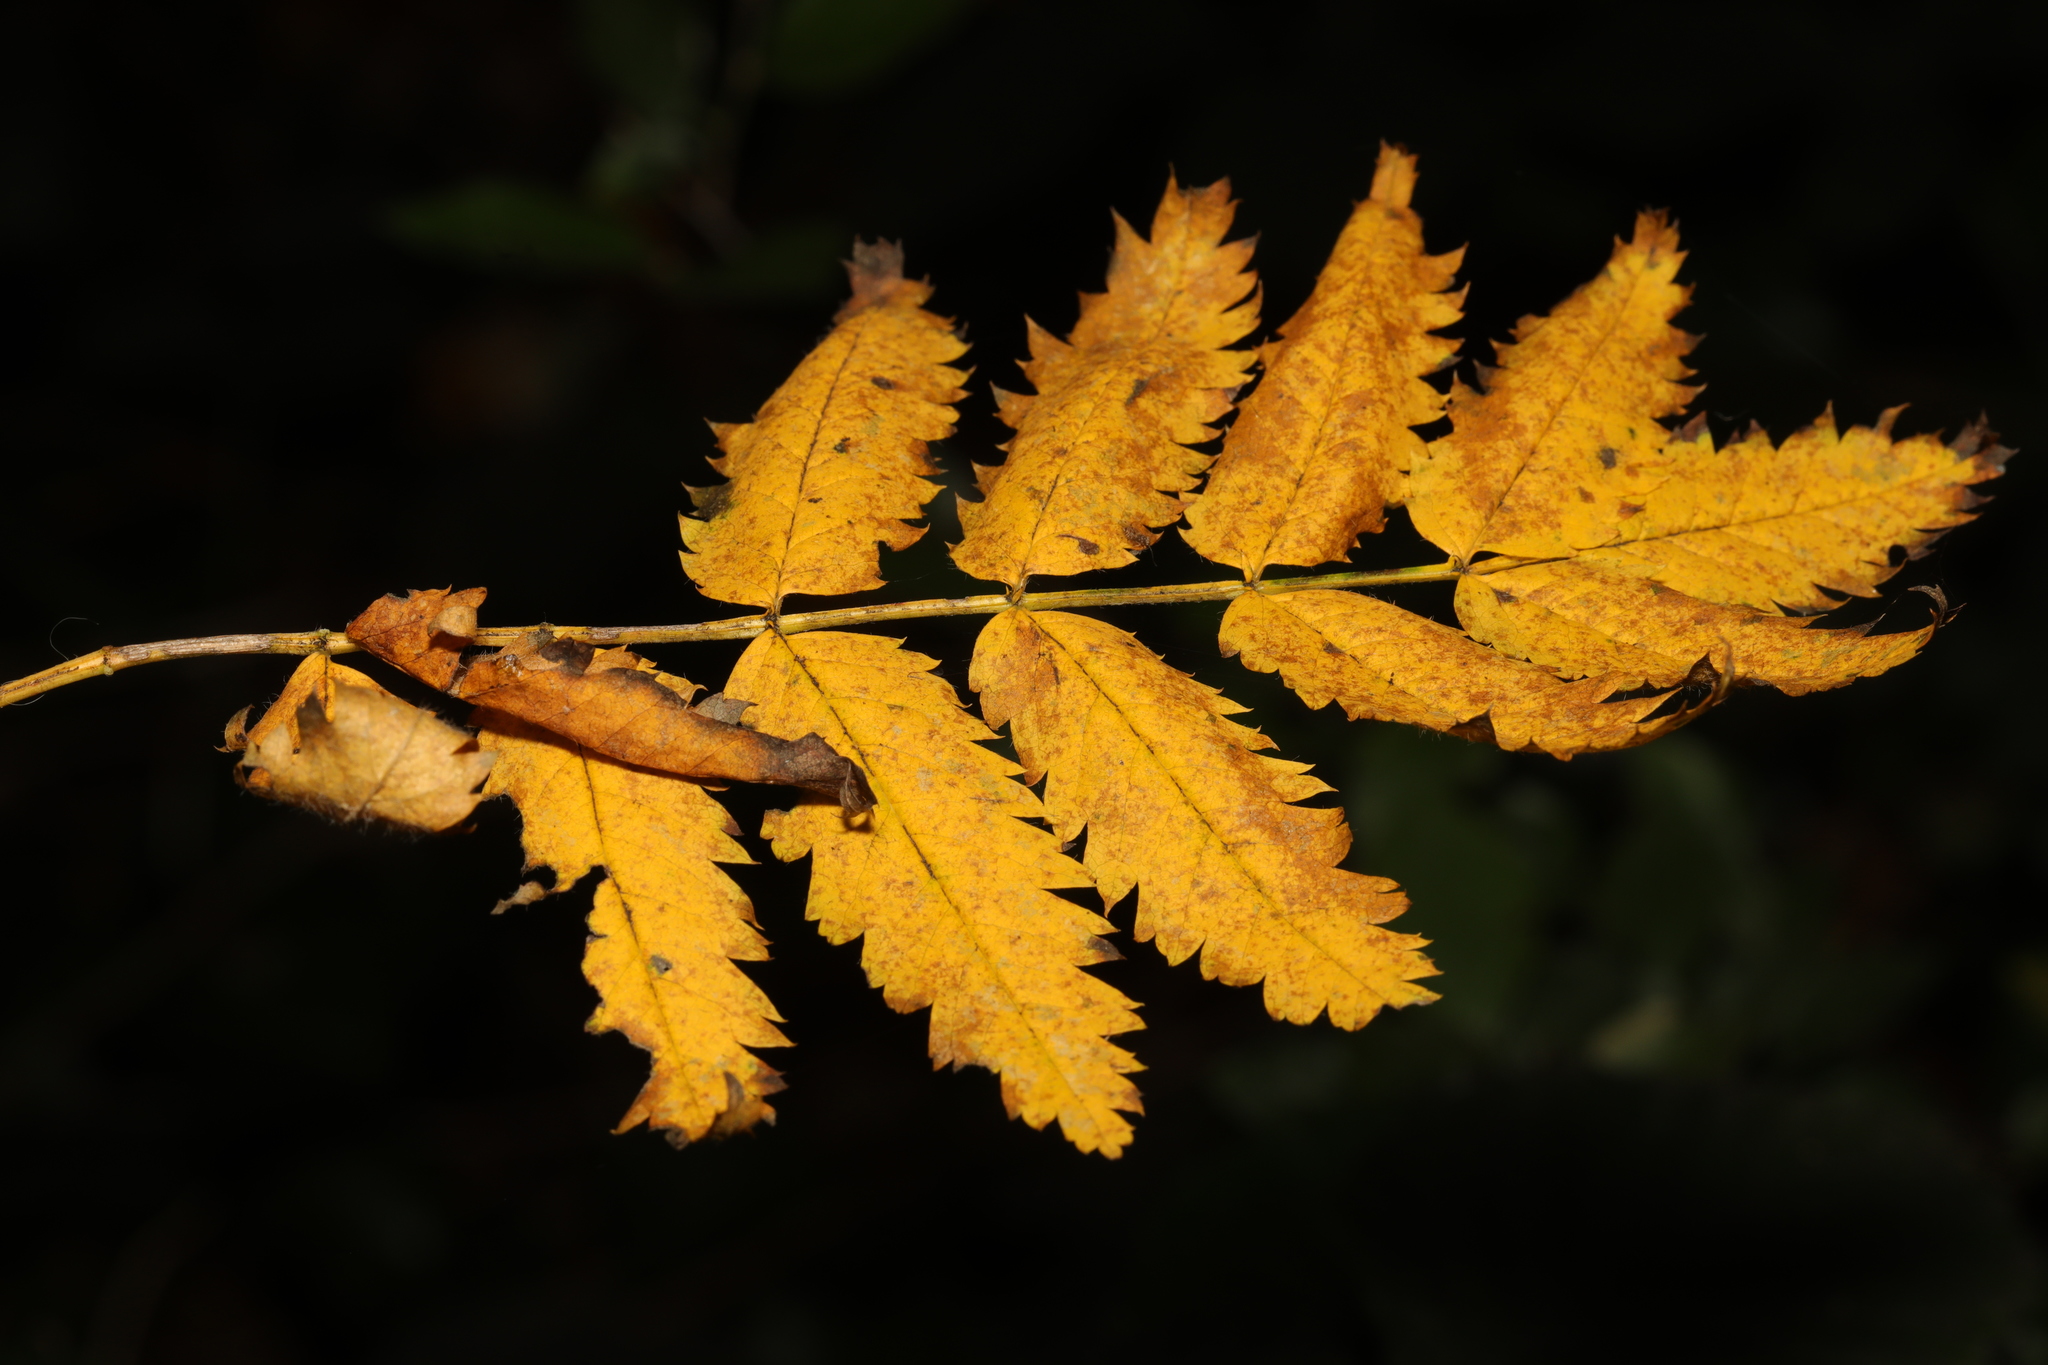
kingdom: Plantae
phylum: Tracheophyta
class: Magnoliopsida
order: Rosales
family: Rosaceae
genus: Sorbus
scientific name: Sorbus aucuparia
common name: Rowan
